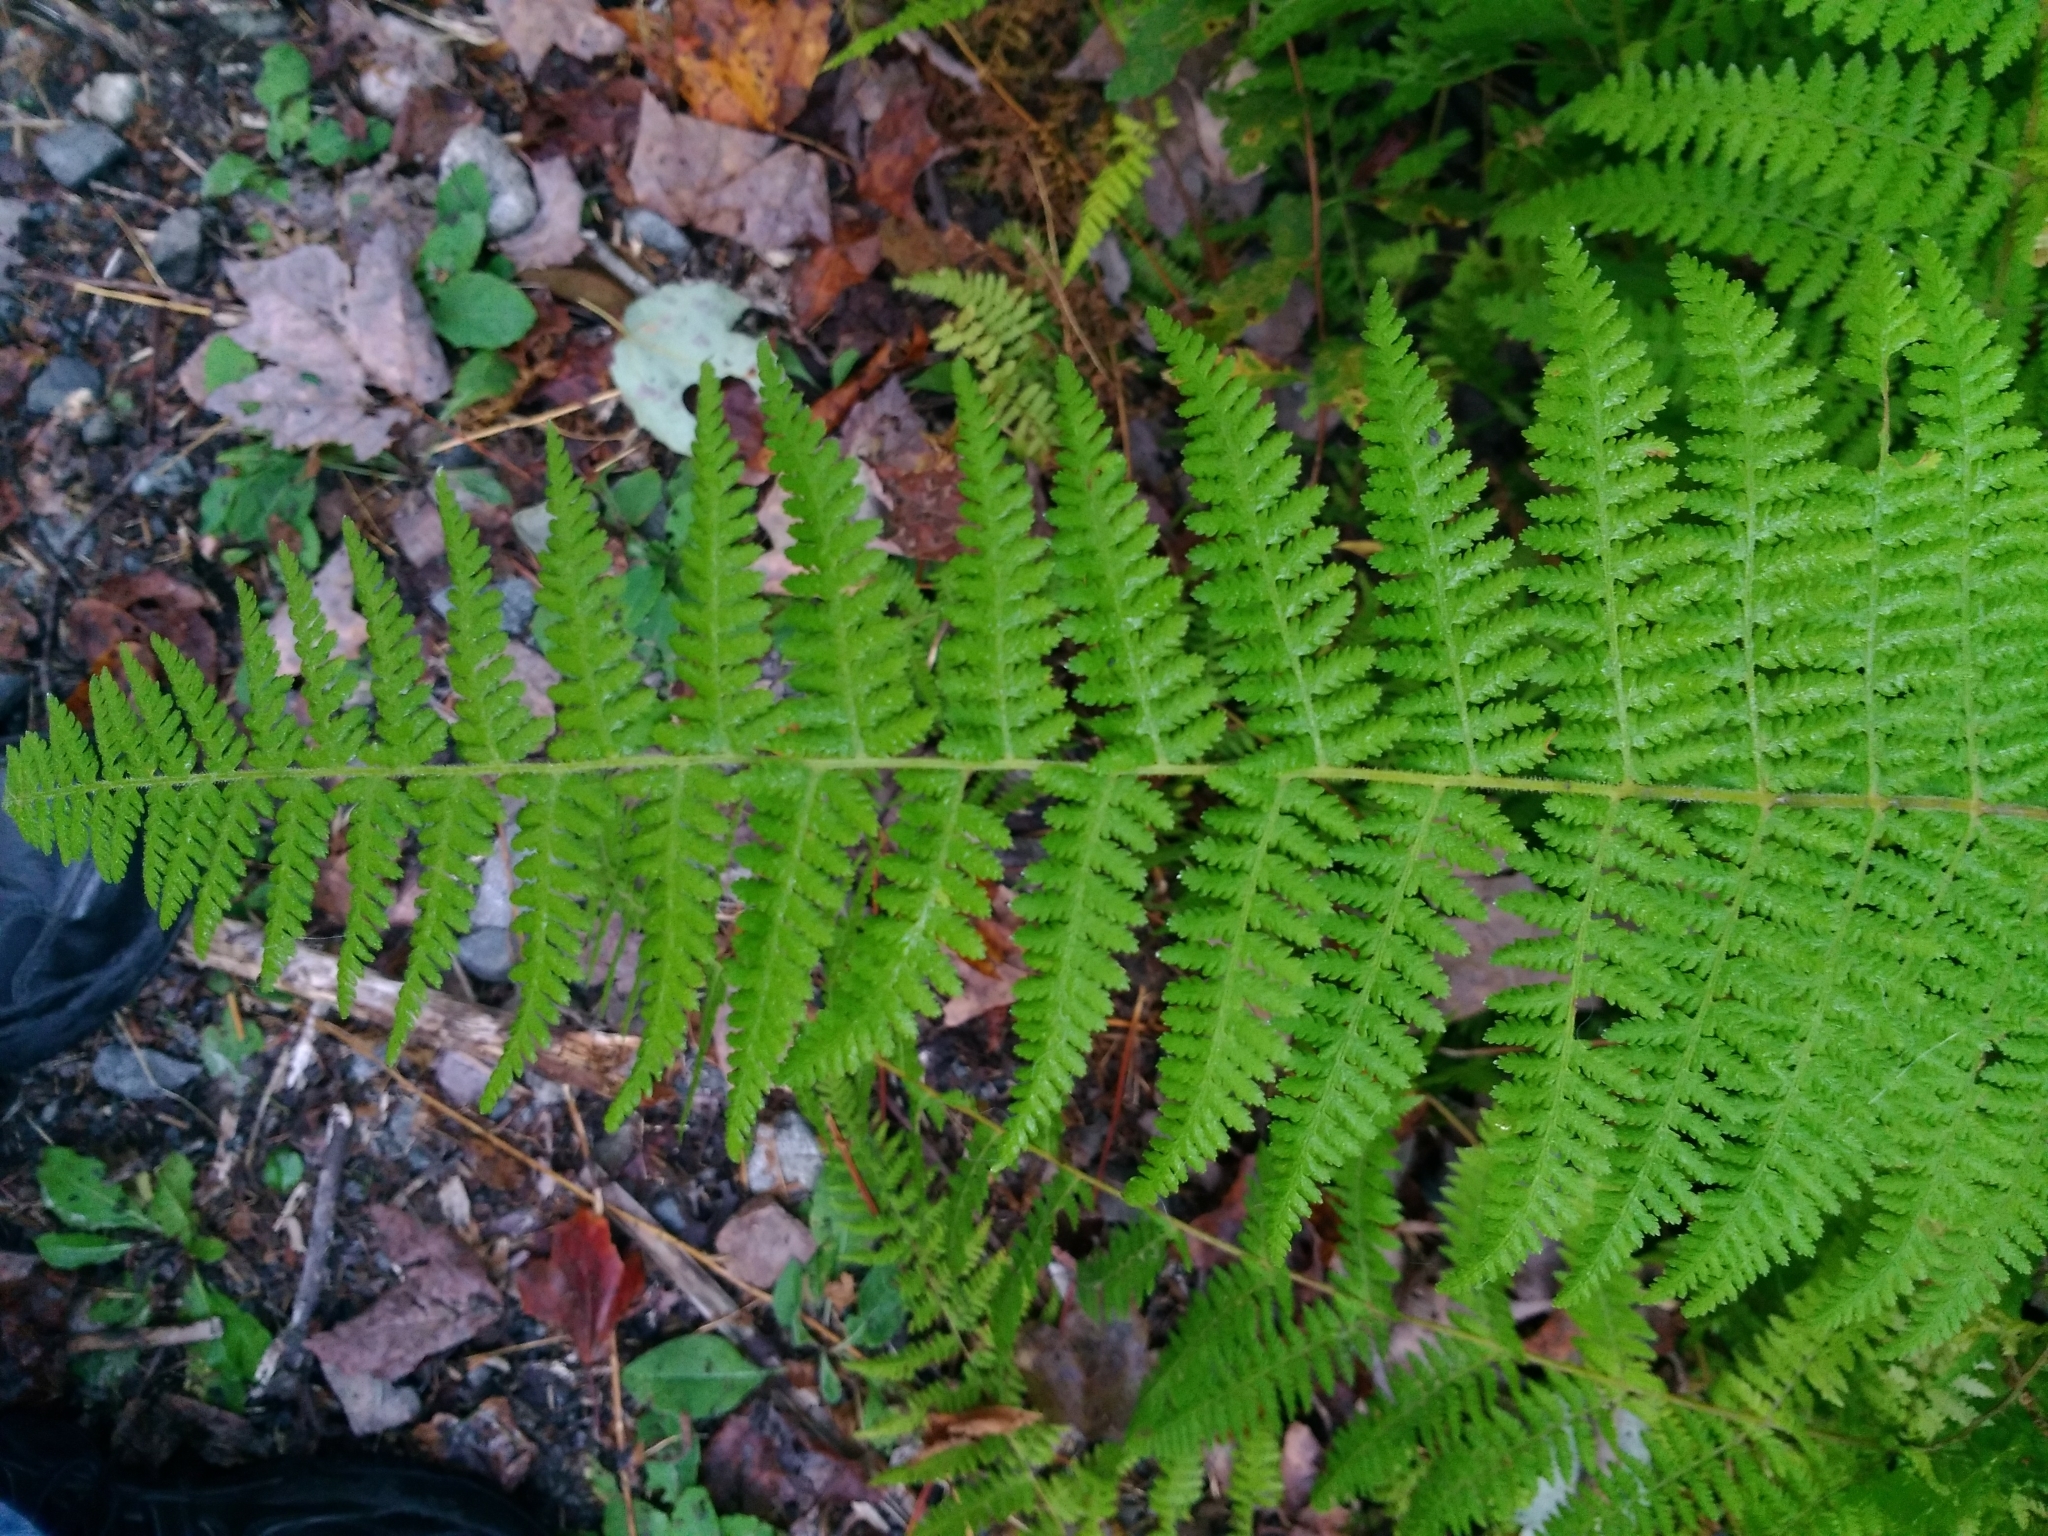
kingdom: Plantae
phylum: Tracheophyta
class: Polypodiopsida
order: Polypodiales
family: Dennstaedtiaceae
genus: Sitobolium
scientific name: Sitobolium punctilobum
